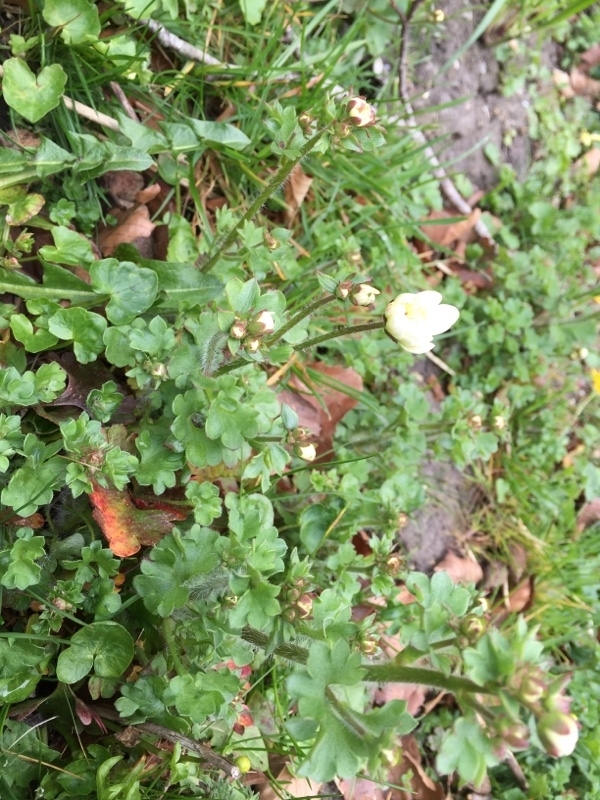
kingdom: Plantae
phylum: Tracheophyta
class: Magnoliopsida
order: Saxifragales
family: Saxifragaceae
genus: Saxifraga
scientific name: Saxifraga granulata
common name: Meadow saxifrage
